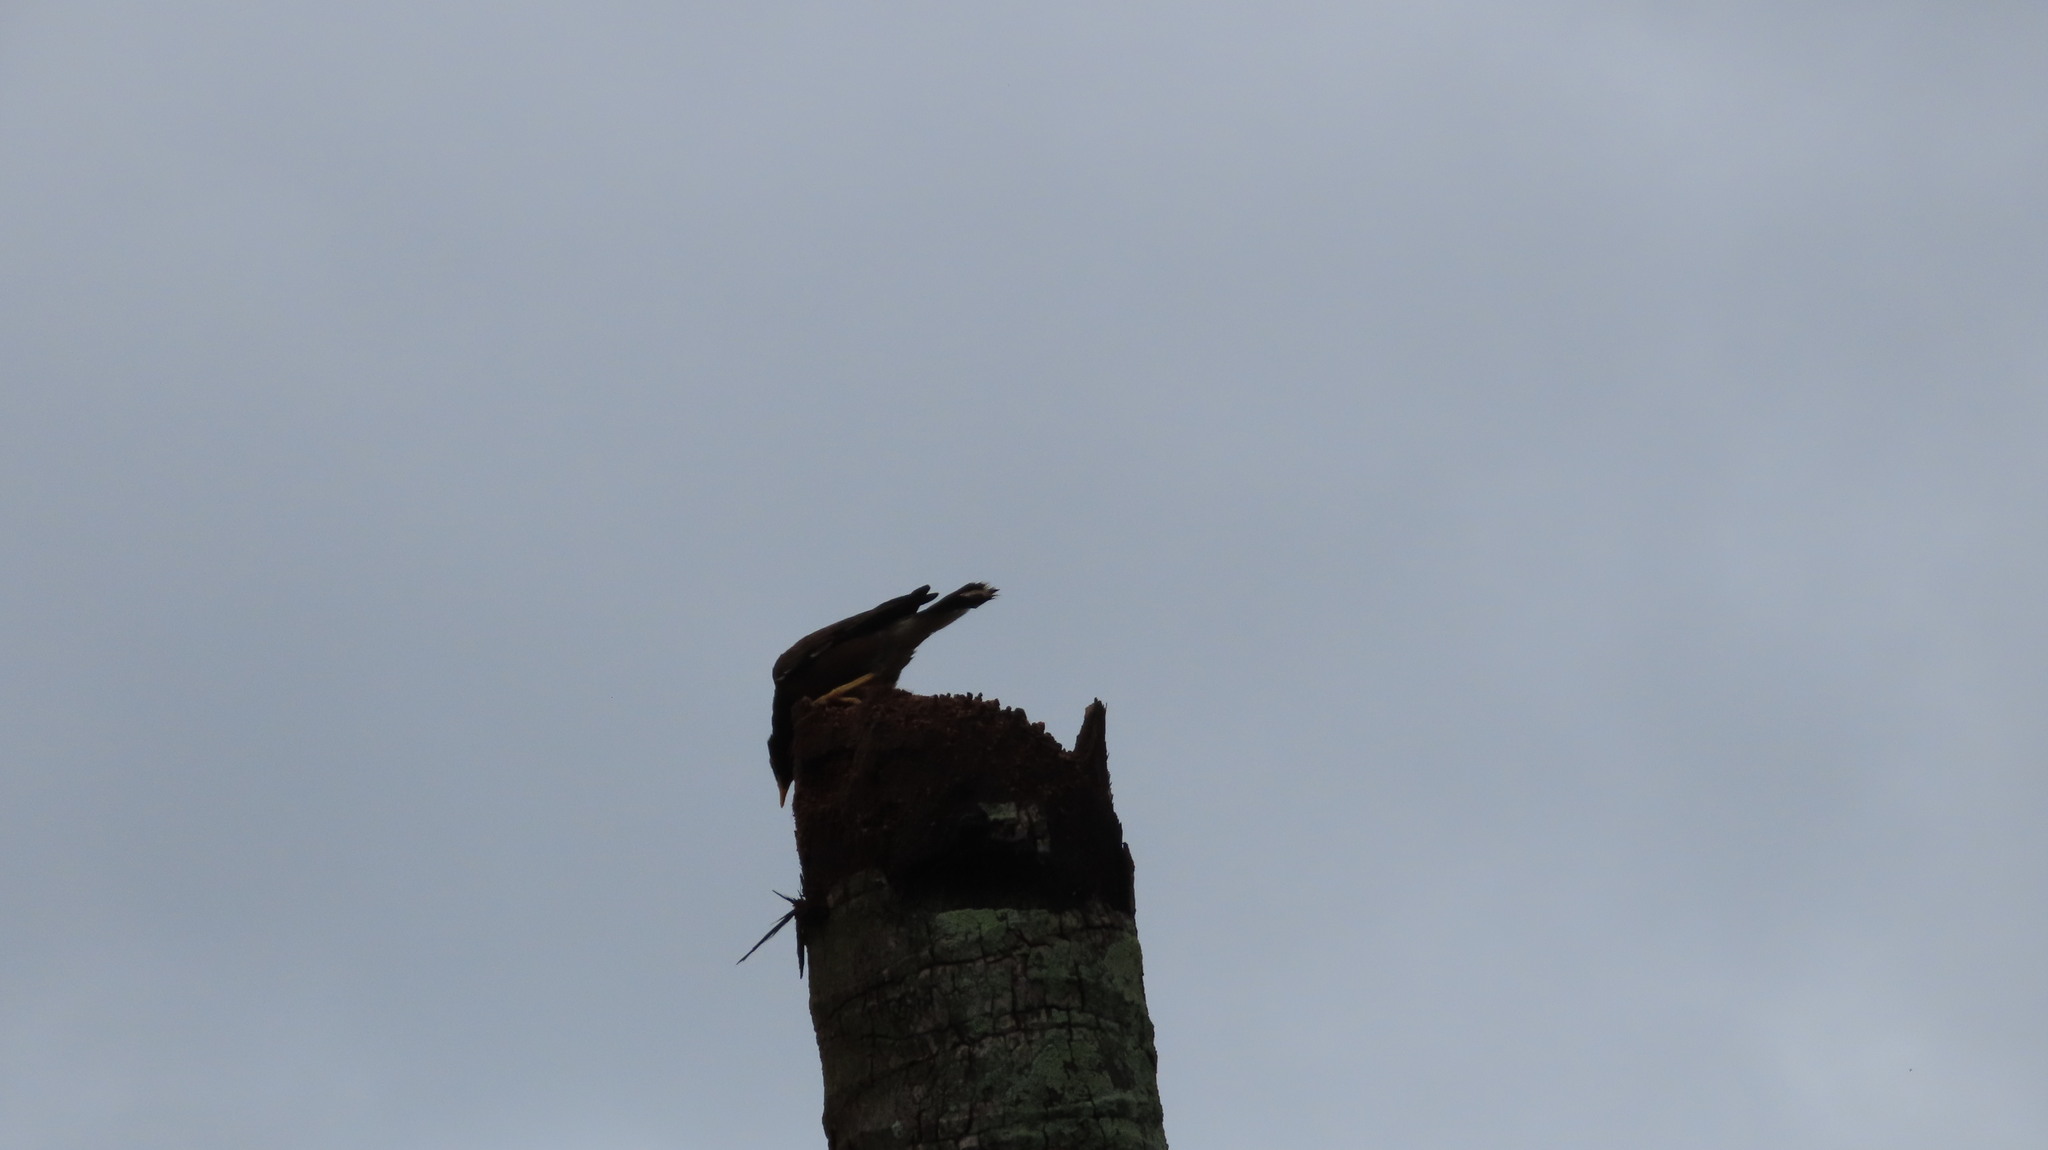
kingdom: Animalia
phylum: Chordata
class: Aves
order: Passeriformes
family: Sturnidae
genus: Acridotheres
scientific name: Acridotheres tristis
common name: Common myna
